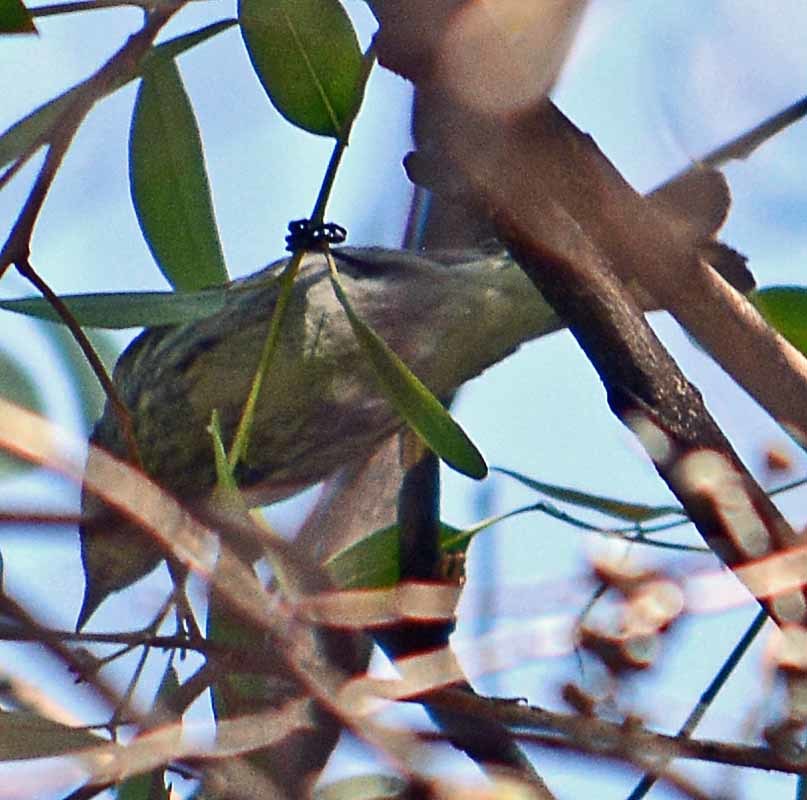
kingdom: Animalia
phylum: Chordata
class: Aves
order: Passeriformes
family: Parulidae
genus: Setophaga
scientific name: Setophaga coronata
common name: Myrtle warbler
